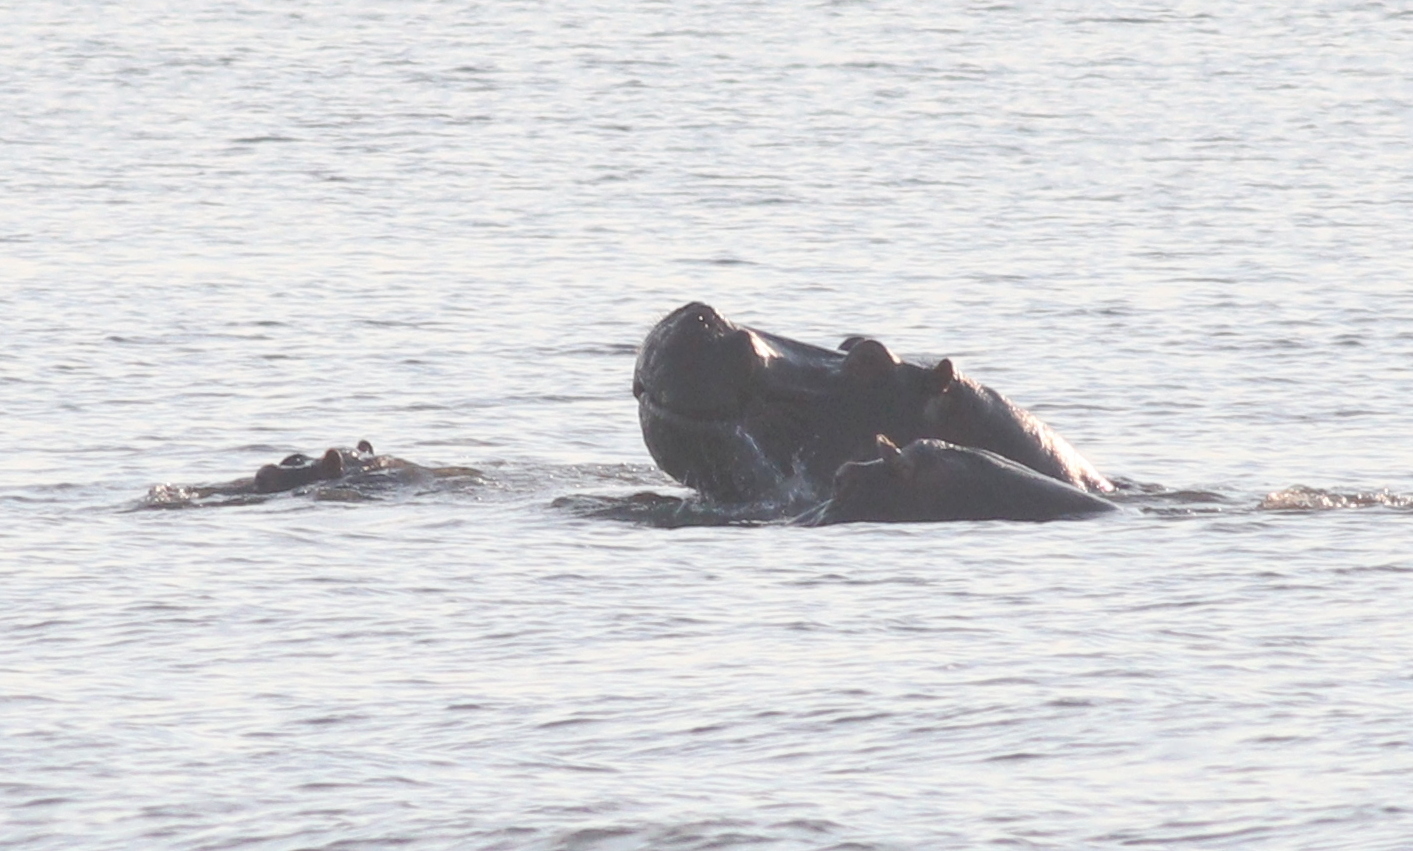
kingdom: Animalia
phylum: Chordata
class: Mammalia
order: Artiodactyla
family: Hippopotamidae
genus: Hippopotamus
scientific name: Hippopotamus amphibius
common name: Common hippopotamus
